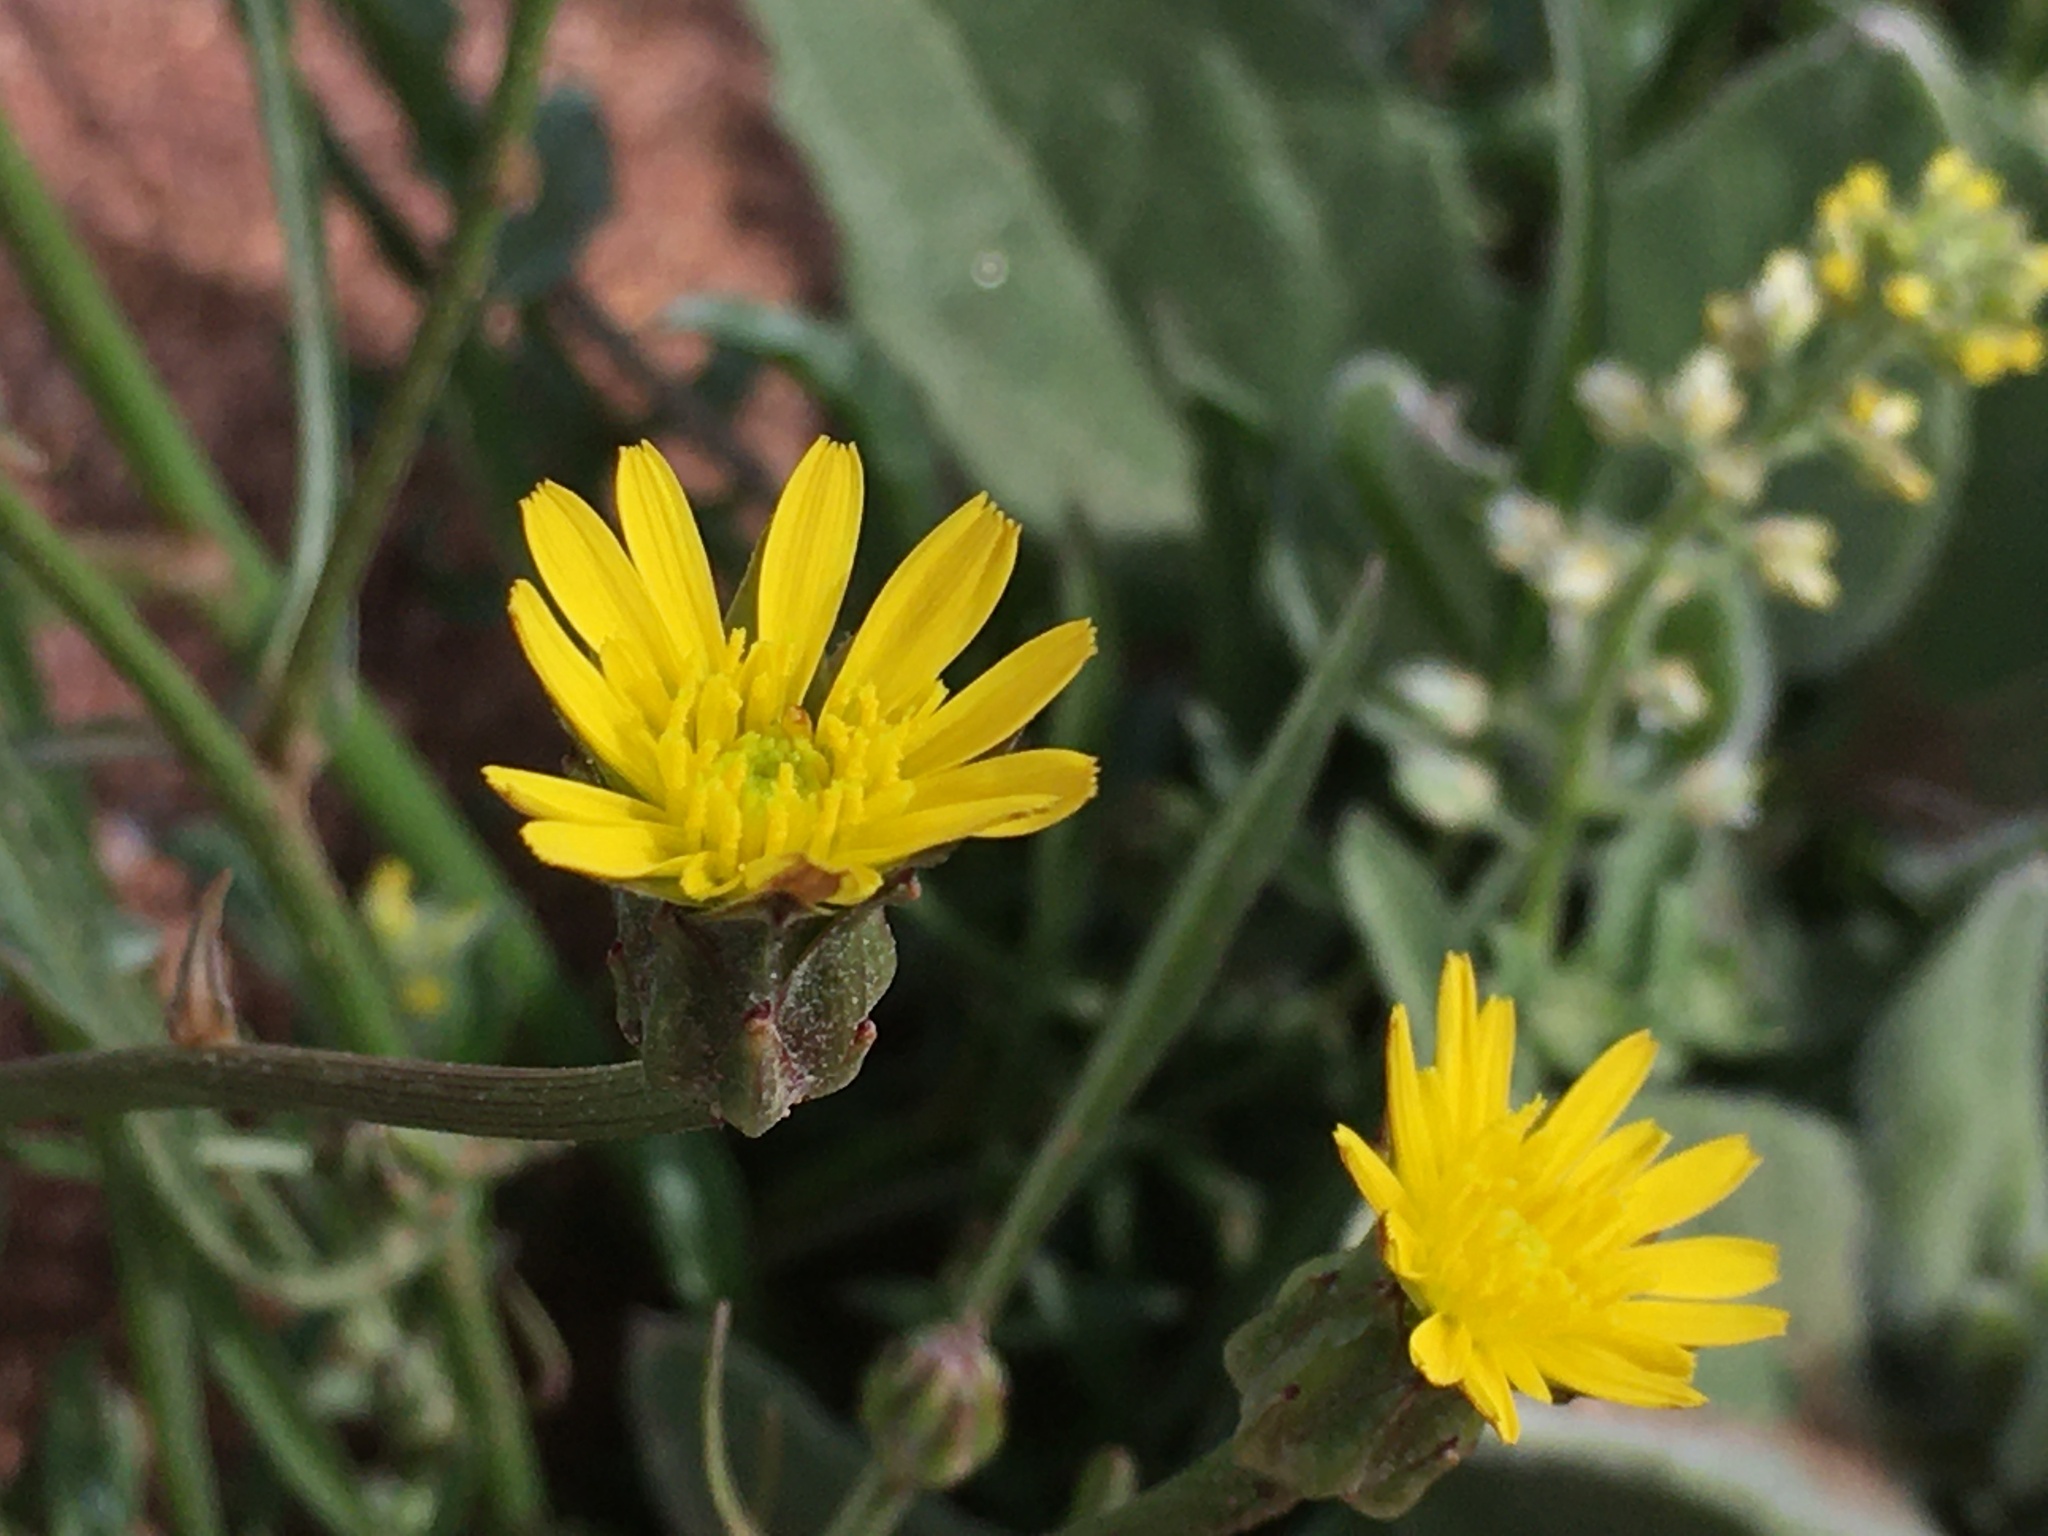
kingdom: Plantae
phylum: Tracheophyta
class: Magnoliopsida
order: Asterales
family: Asteraceae
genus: Scorzonera
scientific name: Scorzonera laciniata
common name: Cutleaf vipergrass
